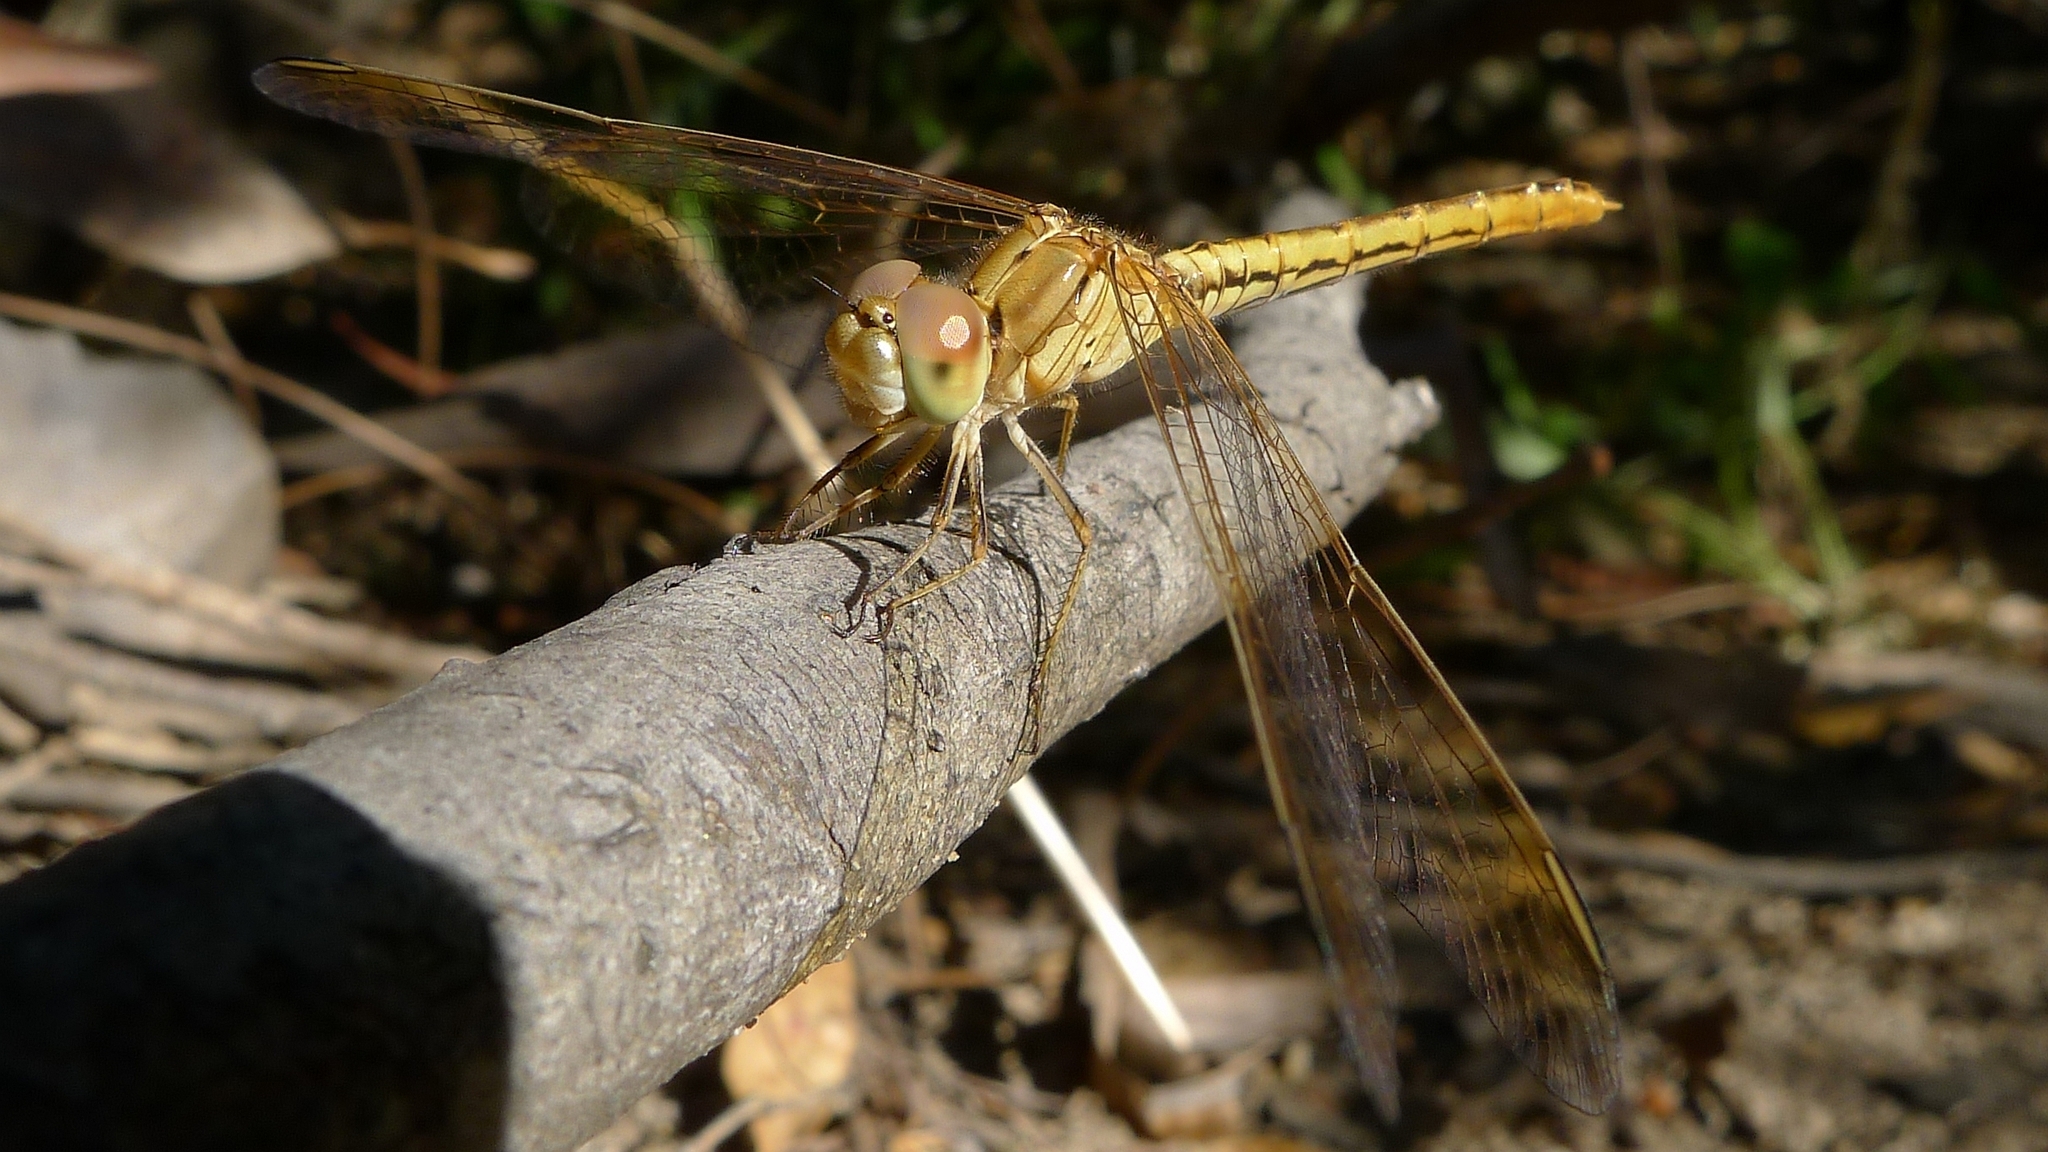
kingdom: Animalia
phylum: Arthropoda
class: Insecta
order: Odonata
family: Libellulidae
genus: Diplacodes
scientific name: Diplacodes haematodes
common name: Scarlet percher
